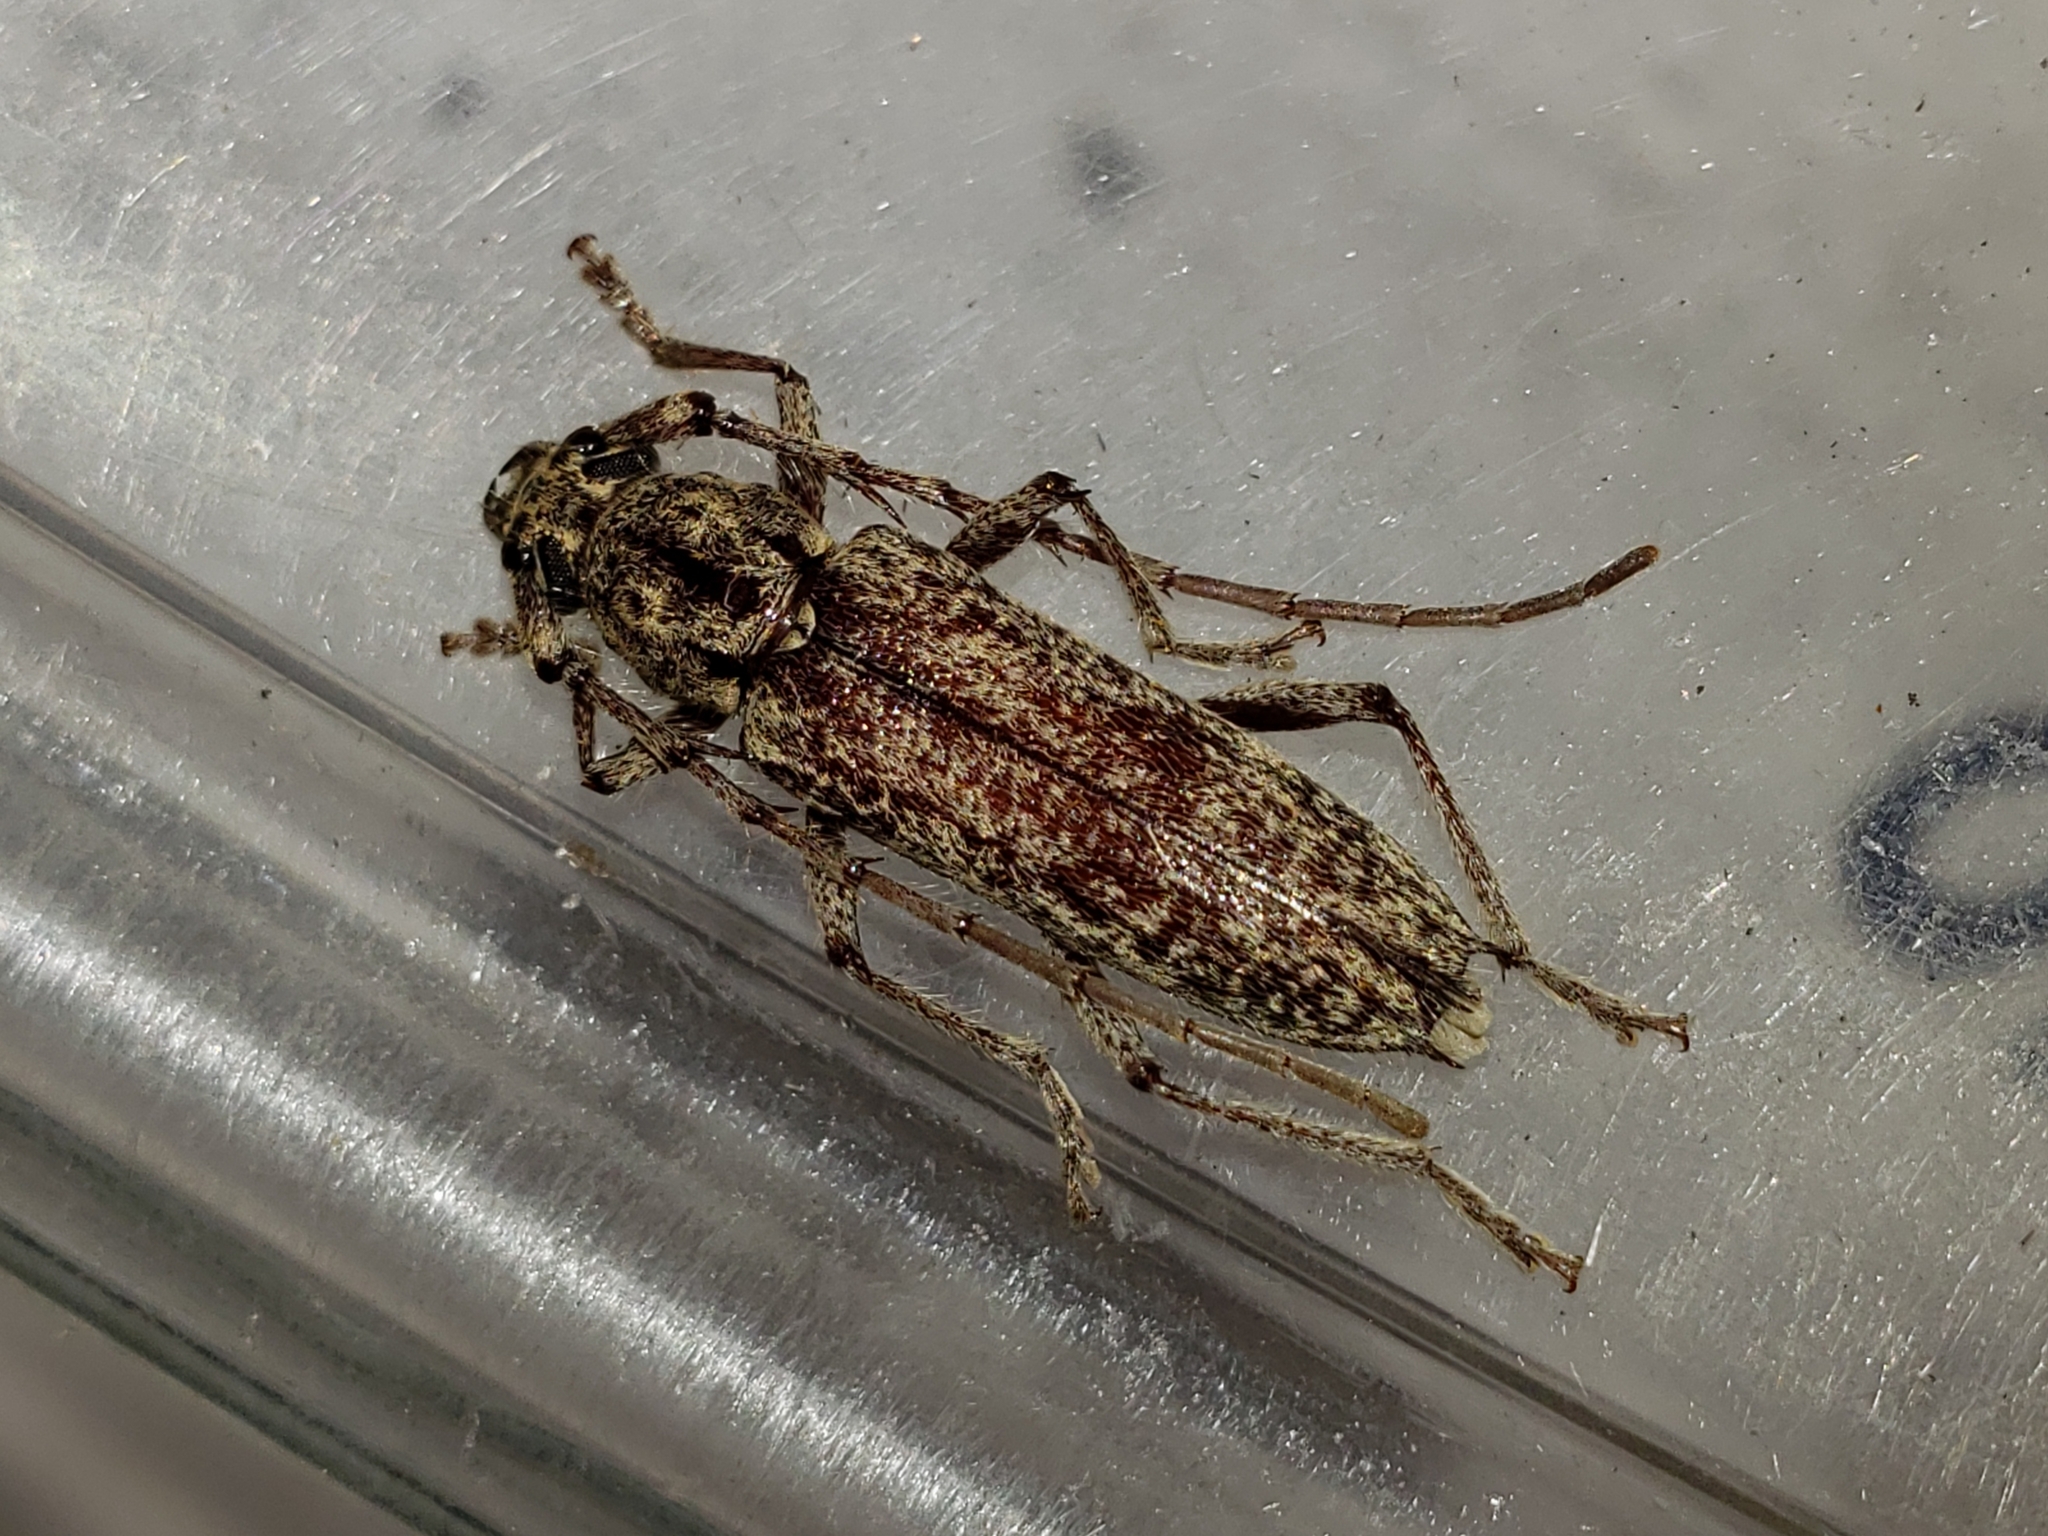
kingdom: Animalia
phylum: Arthropoda
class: Insecta
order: Coleoptera
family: Cerambycidae
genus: Elaphidion
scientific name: Elaphidion mucronatum
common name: Spined oak borer
